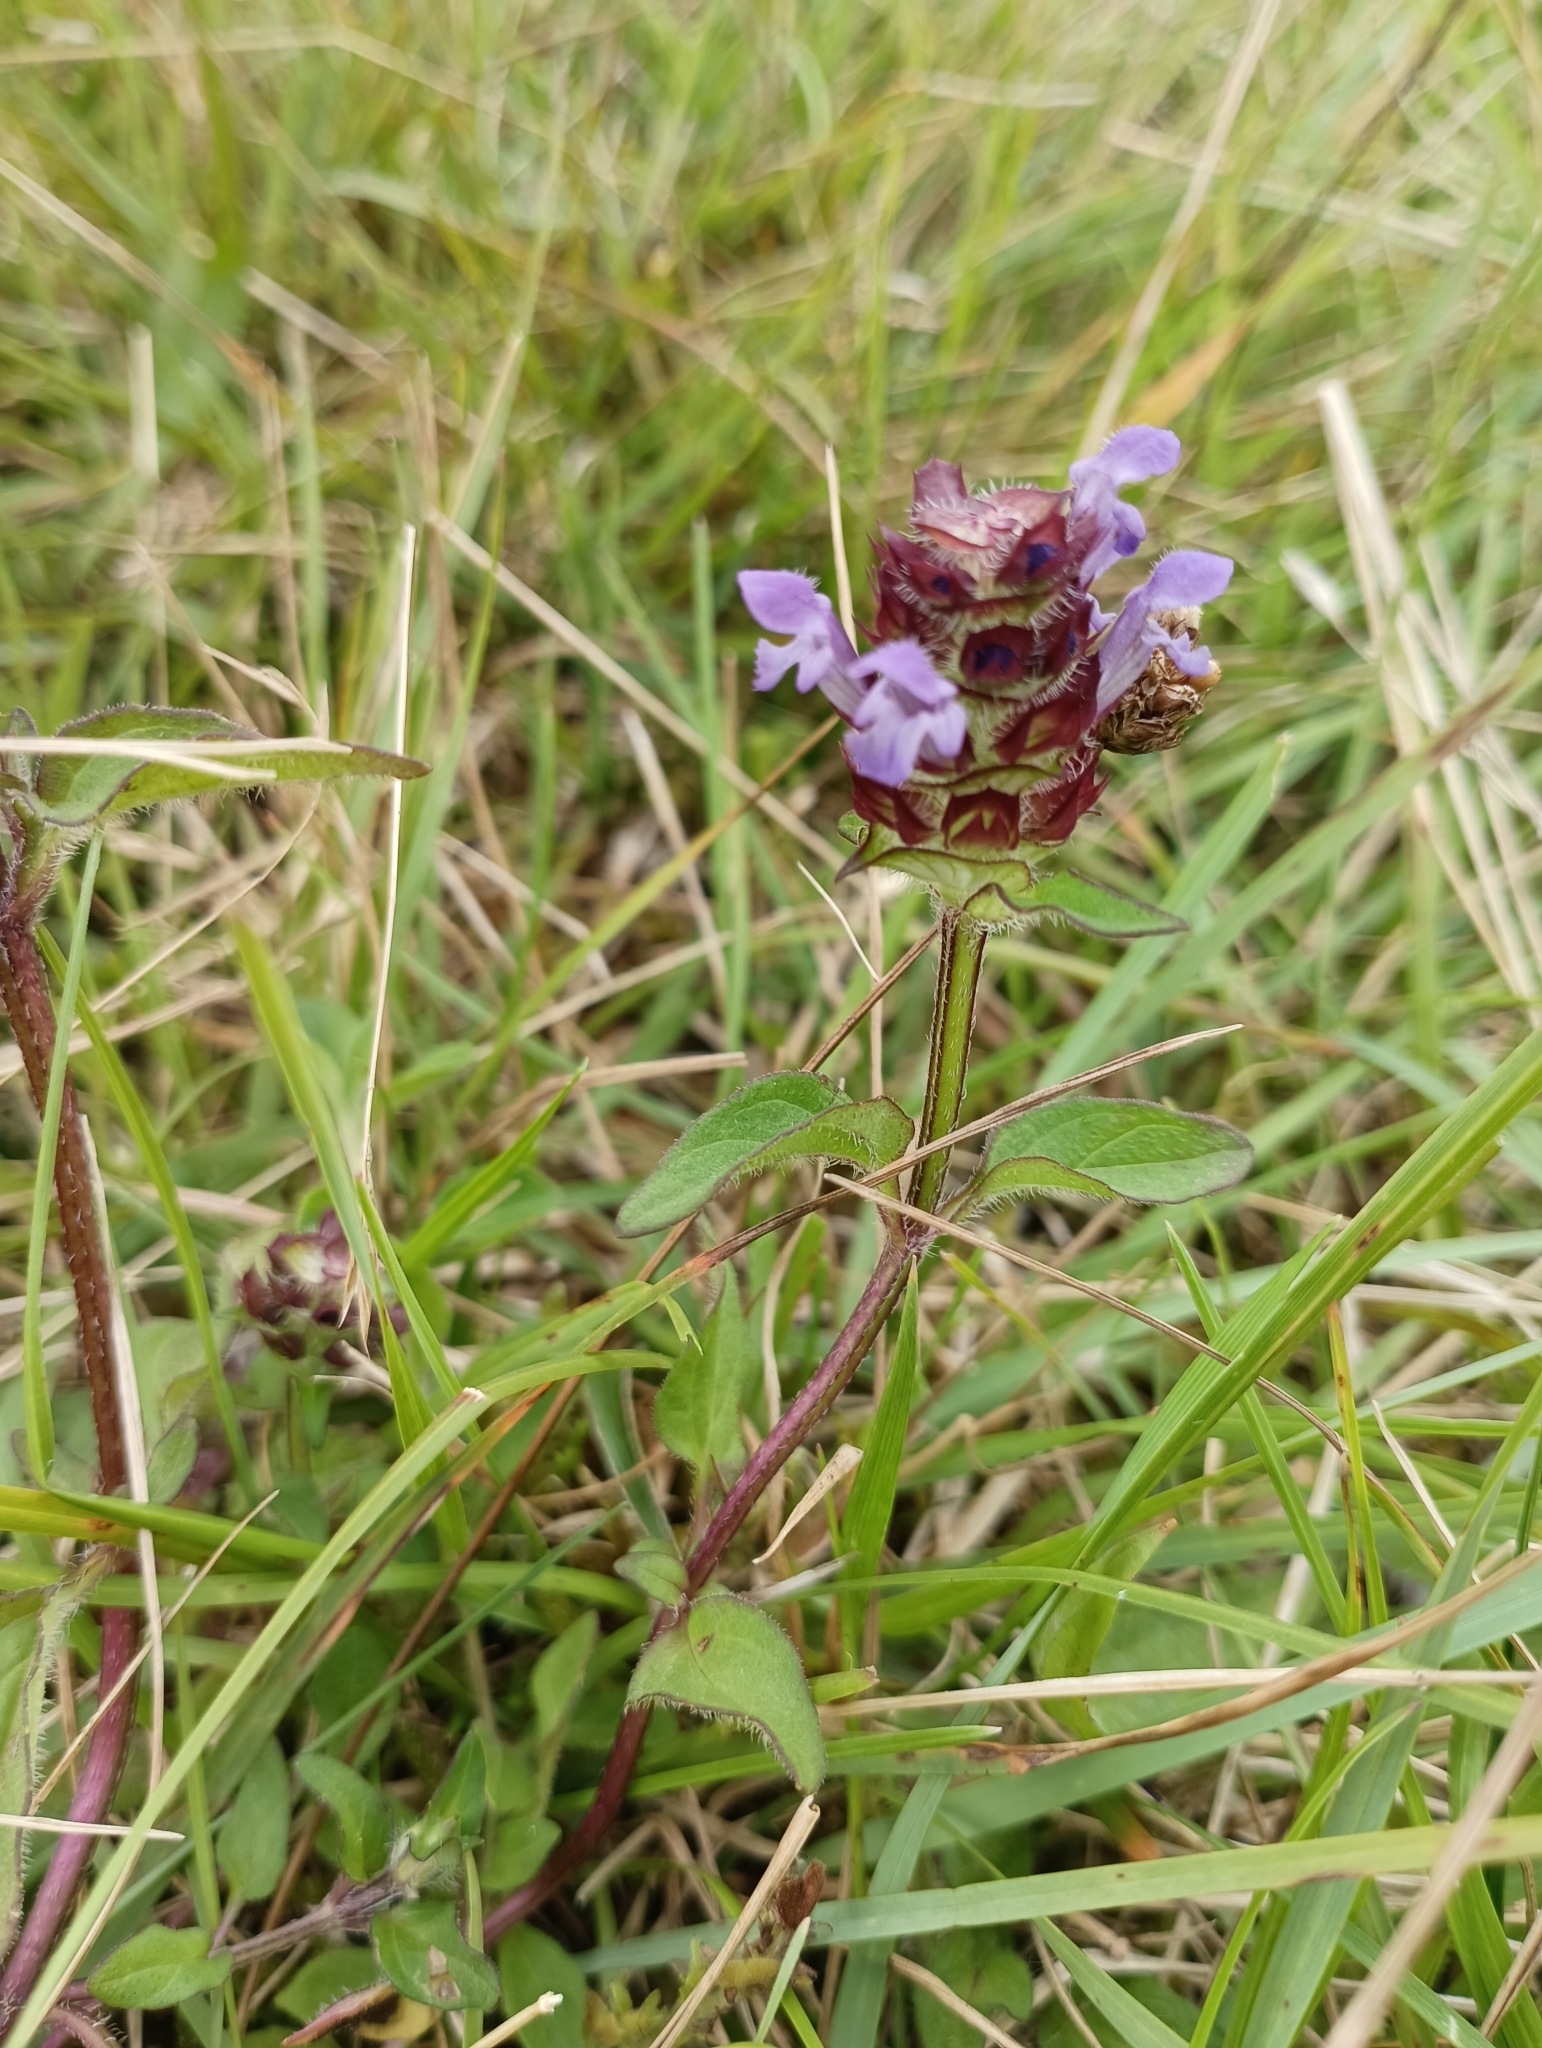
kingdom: Plantae
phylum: Tracheophyta
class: Magnoliopsida
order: Lamiales
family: Lamiaceae
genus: Prunella
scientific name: Prunella vulgaris
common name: Heal-all
